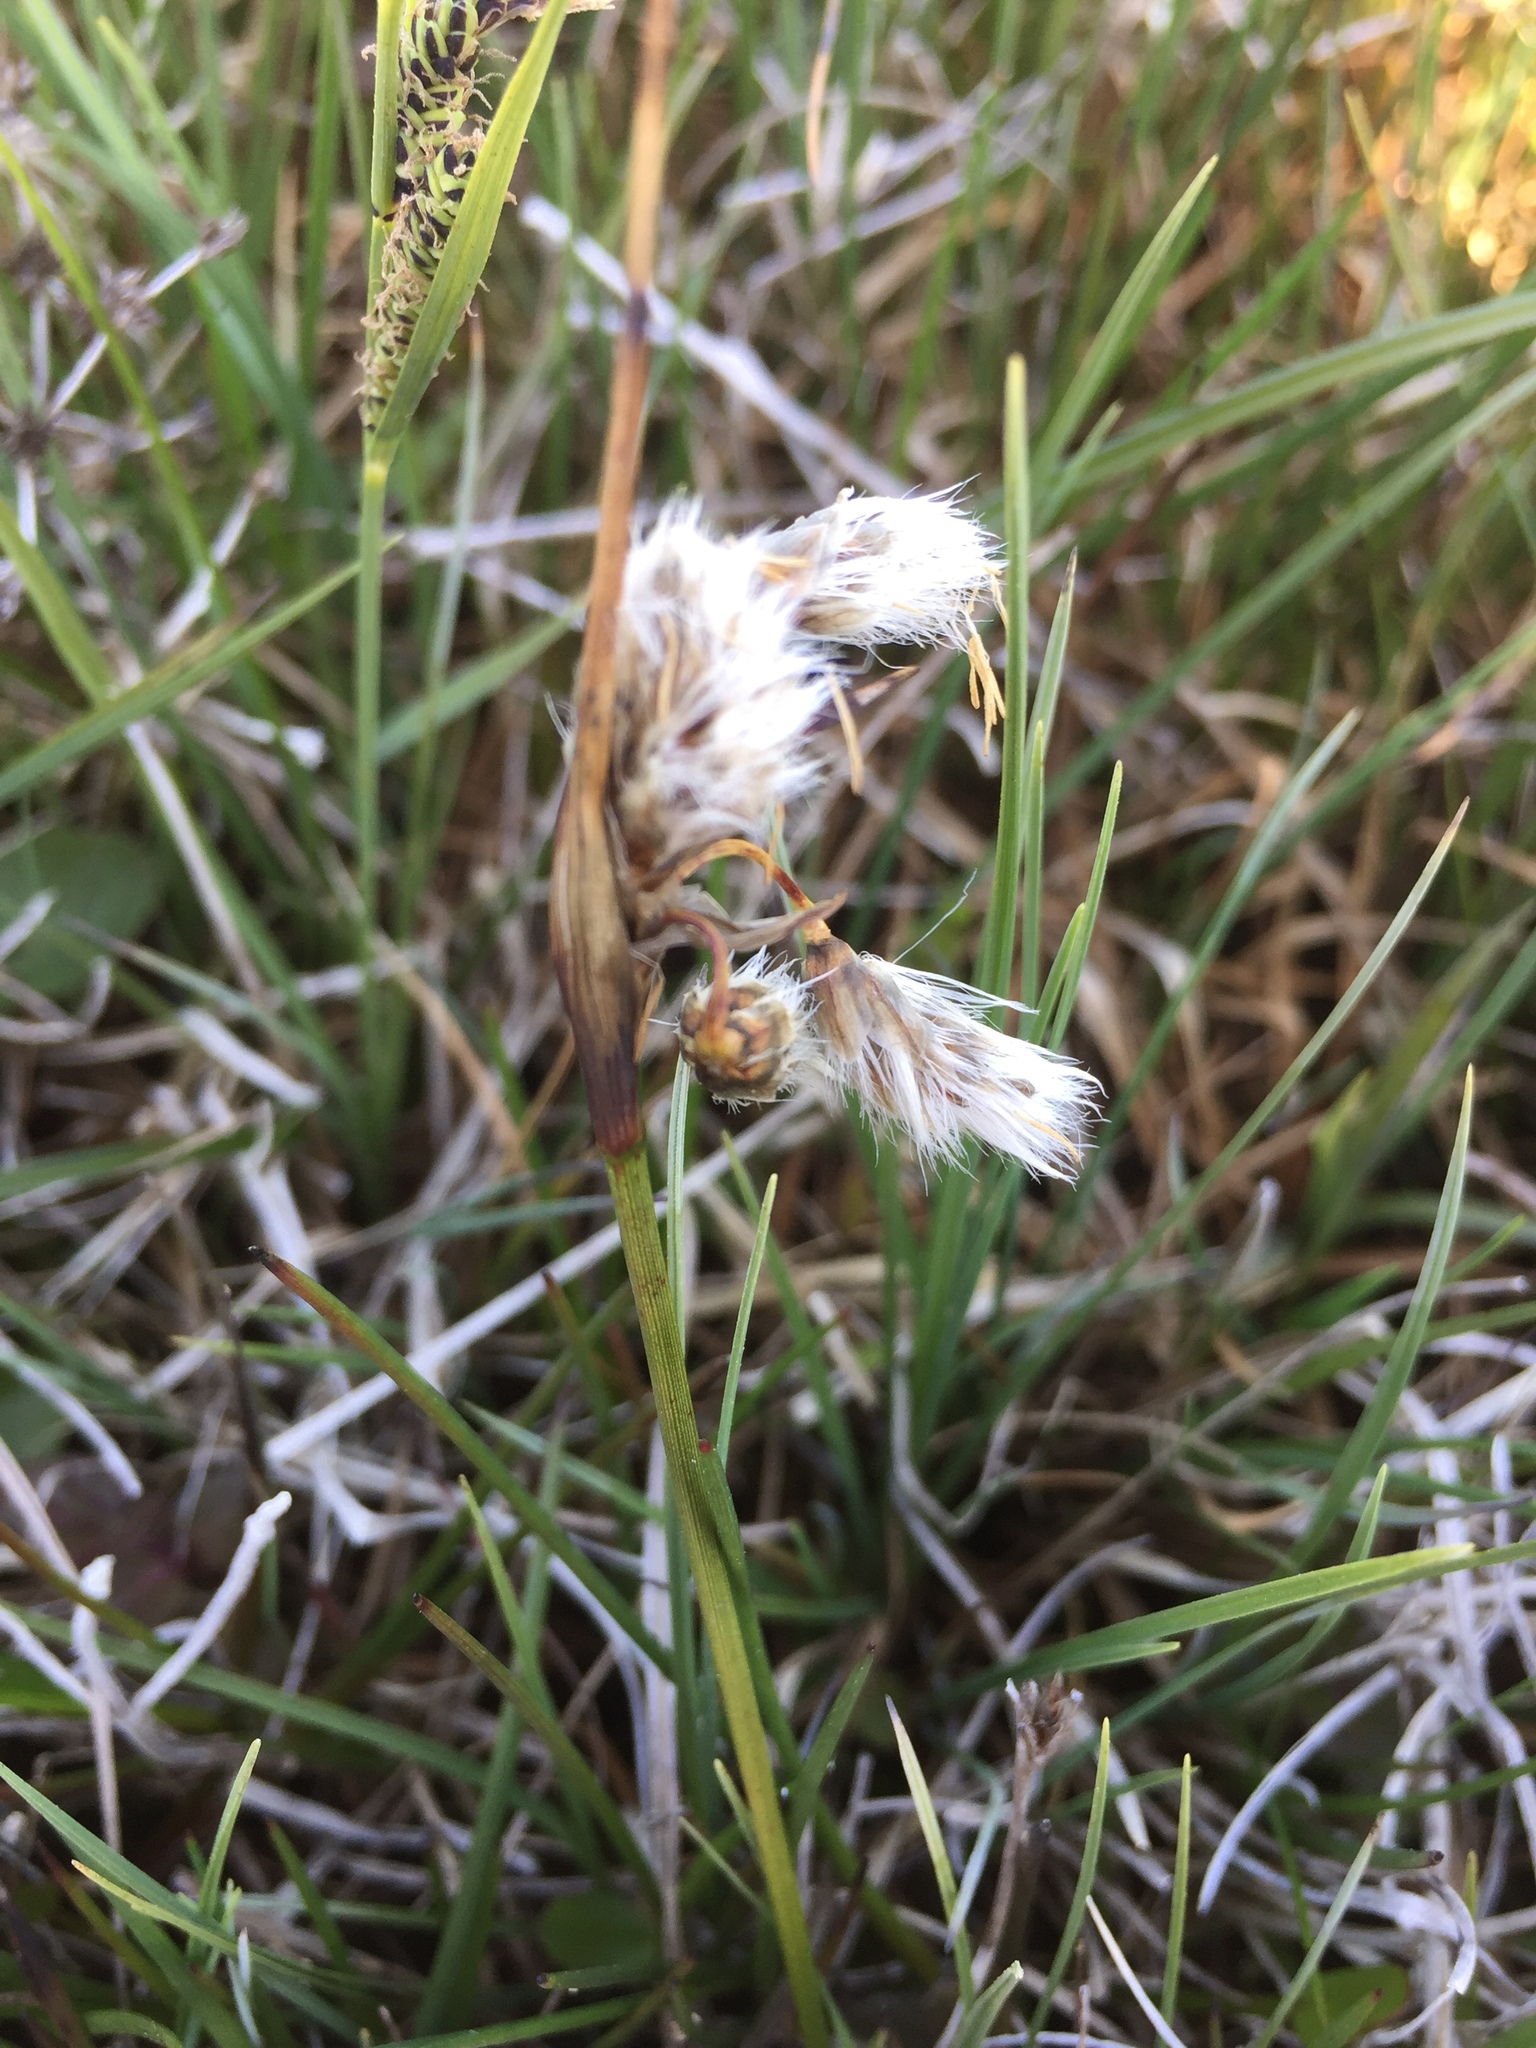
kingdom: Plantae
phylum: Tracheophyta
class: Liliopsida
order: Poales
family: Cyperaceae
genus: Eriophorum
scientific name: Eriophorum angustifolium
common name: Common cottongrass
